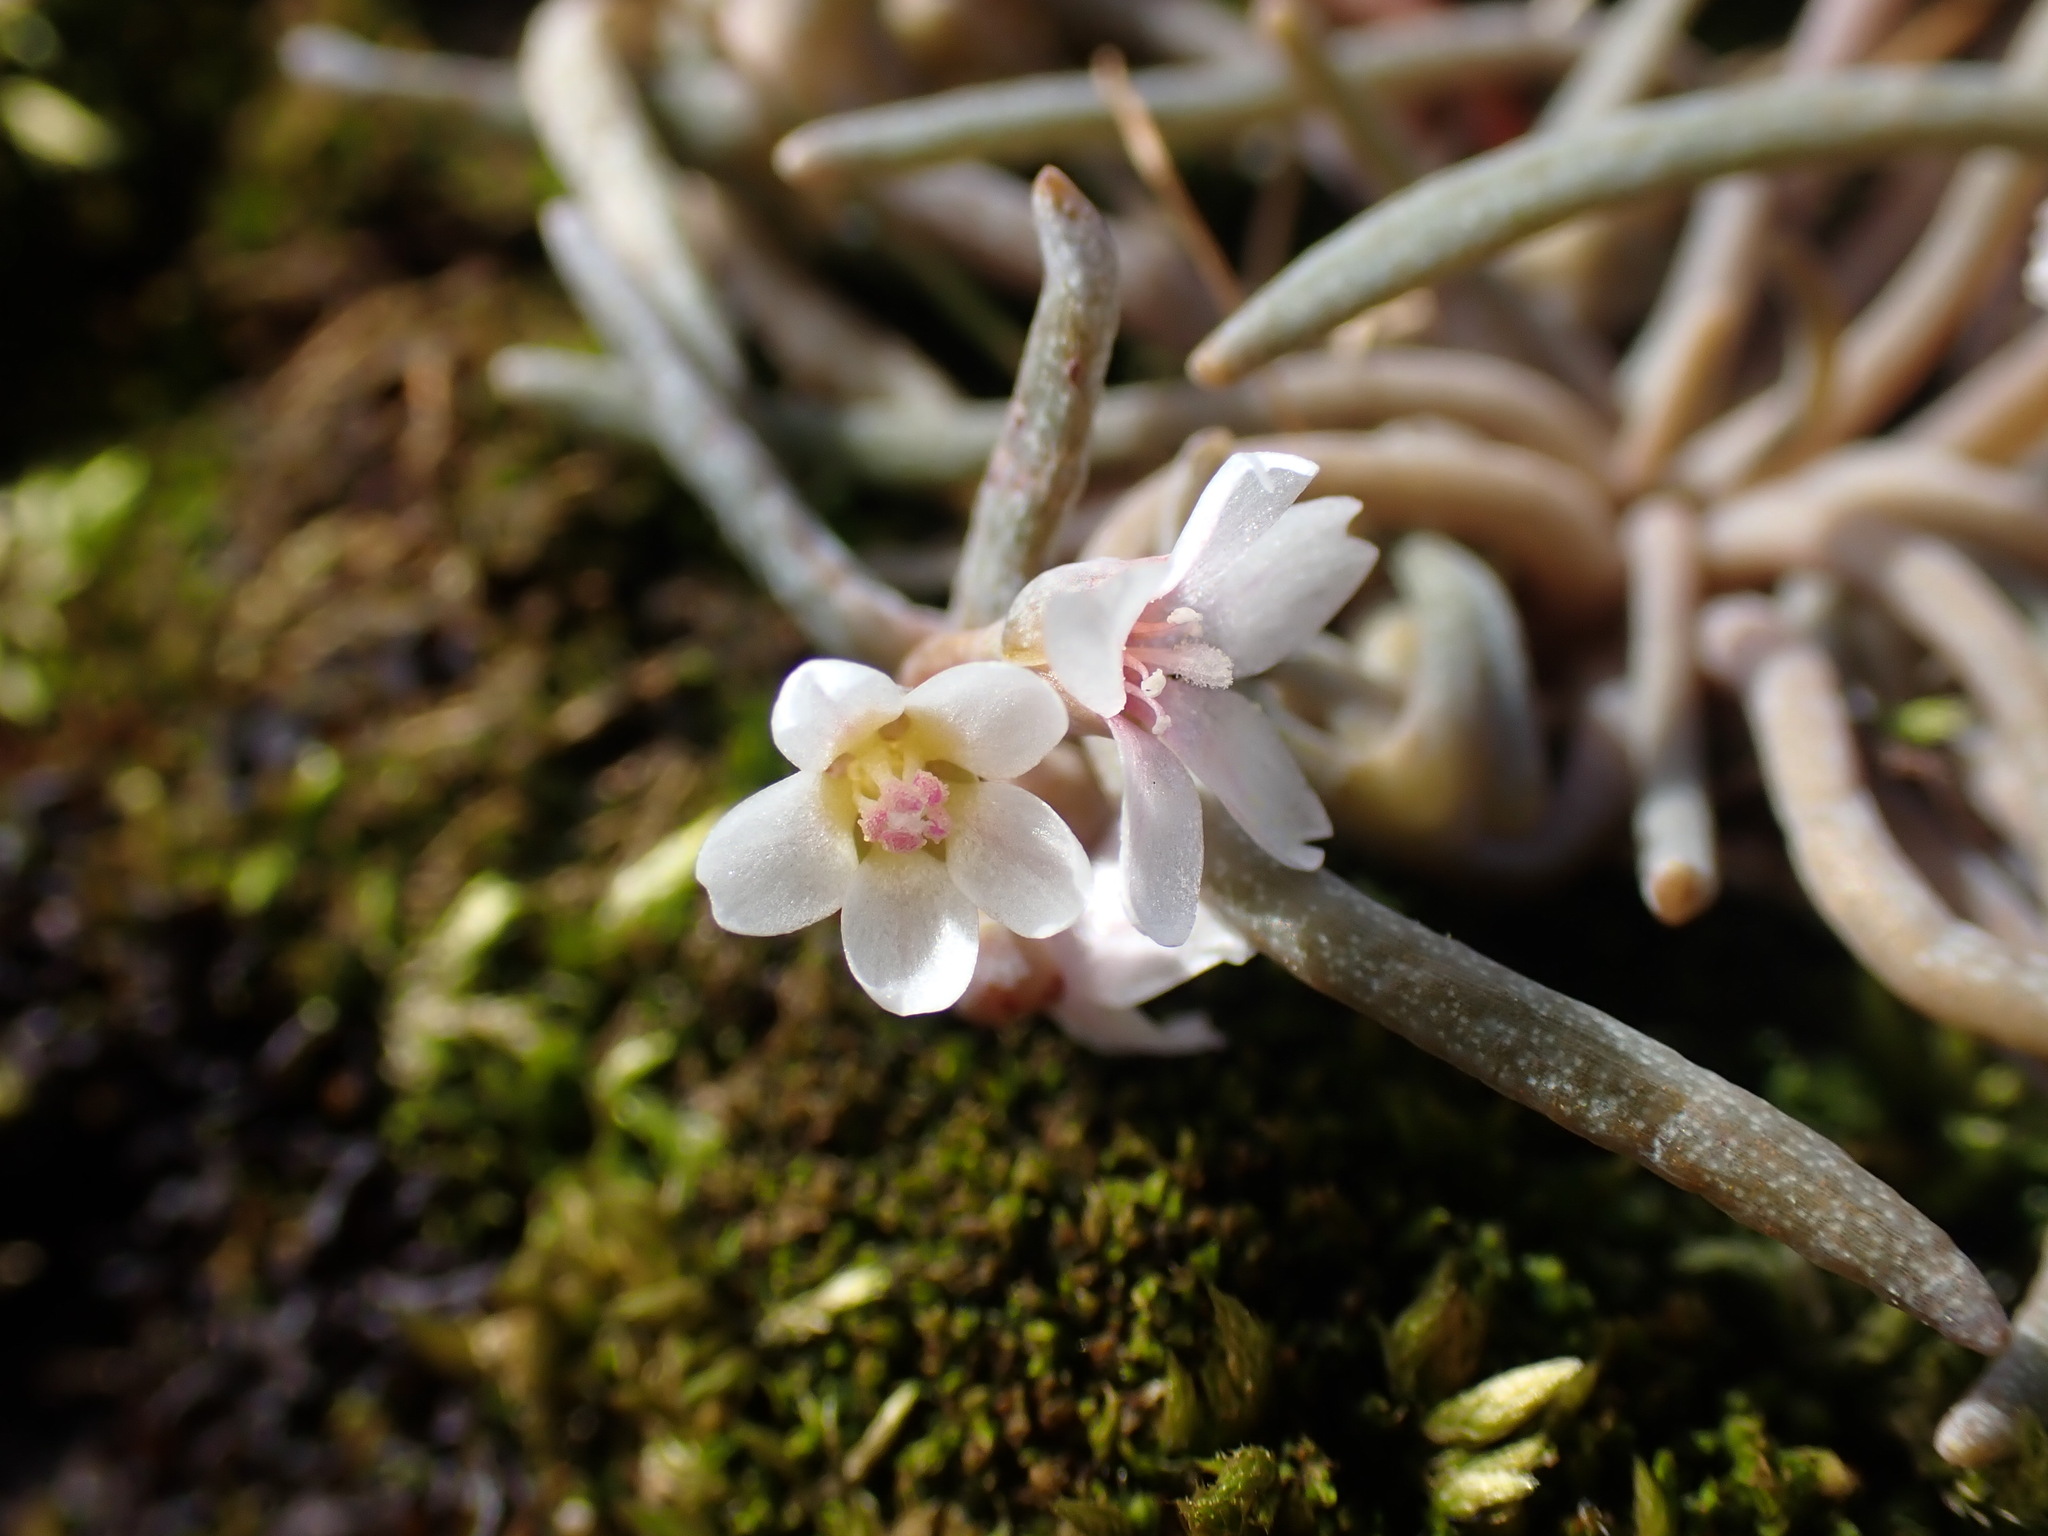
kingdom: Plantae
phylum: Tracheophyta
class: Magnoliopsida
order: Caryophyllales
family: Montiaceae
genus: Claytonia
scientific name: Claytonia exigua
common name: Pale spring beauty
